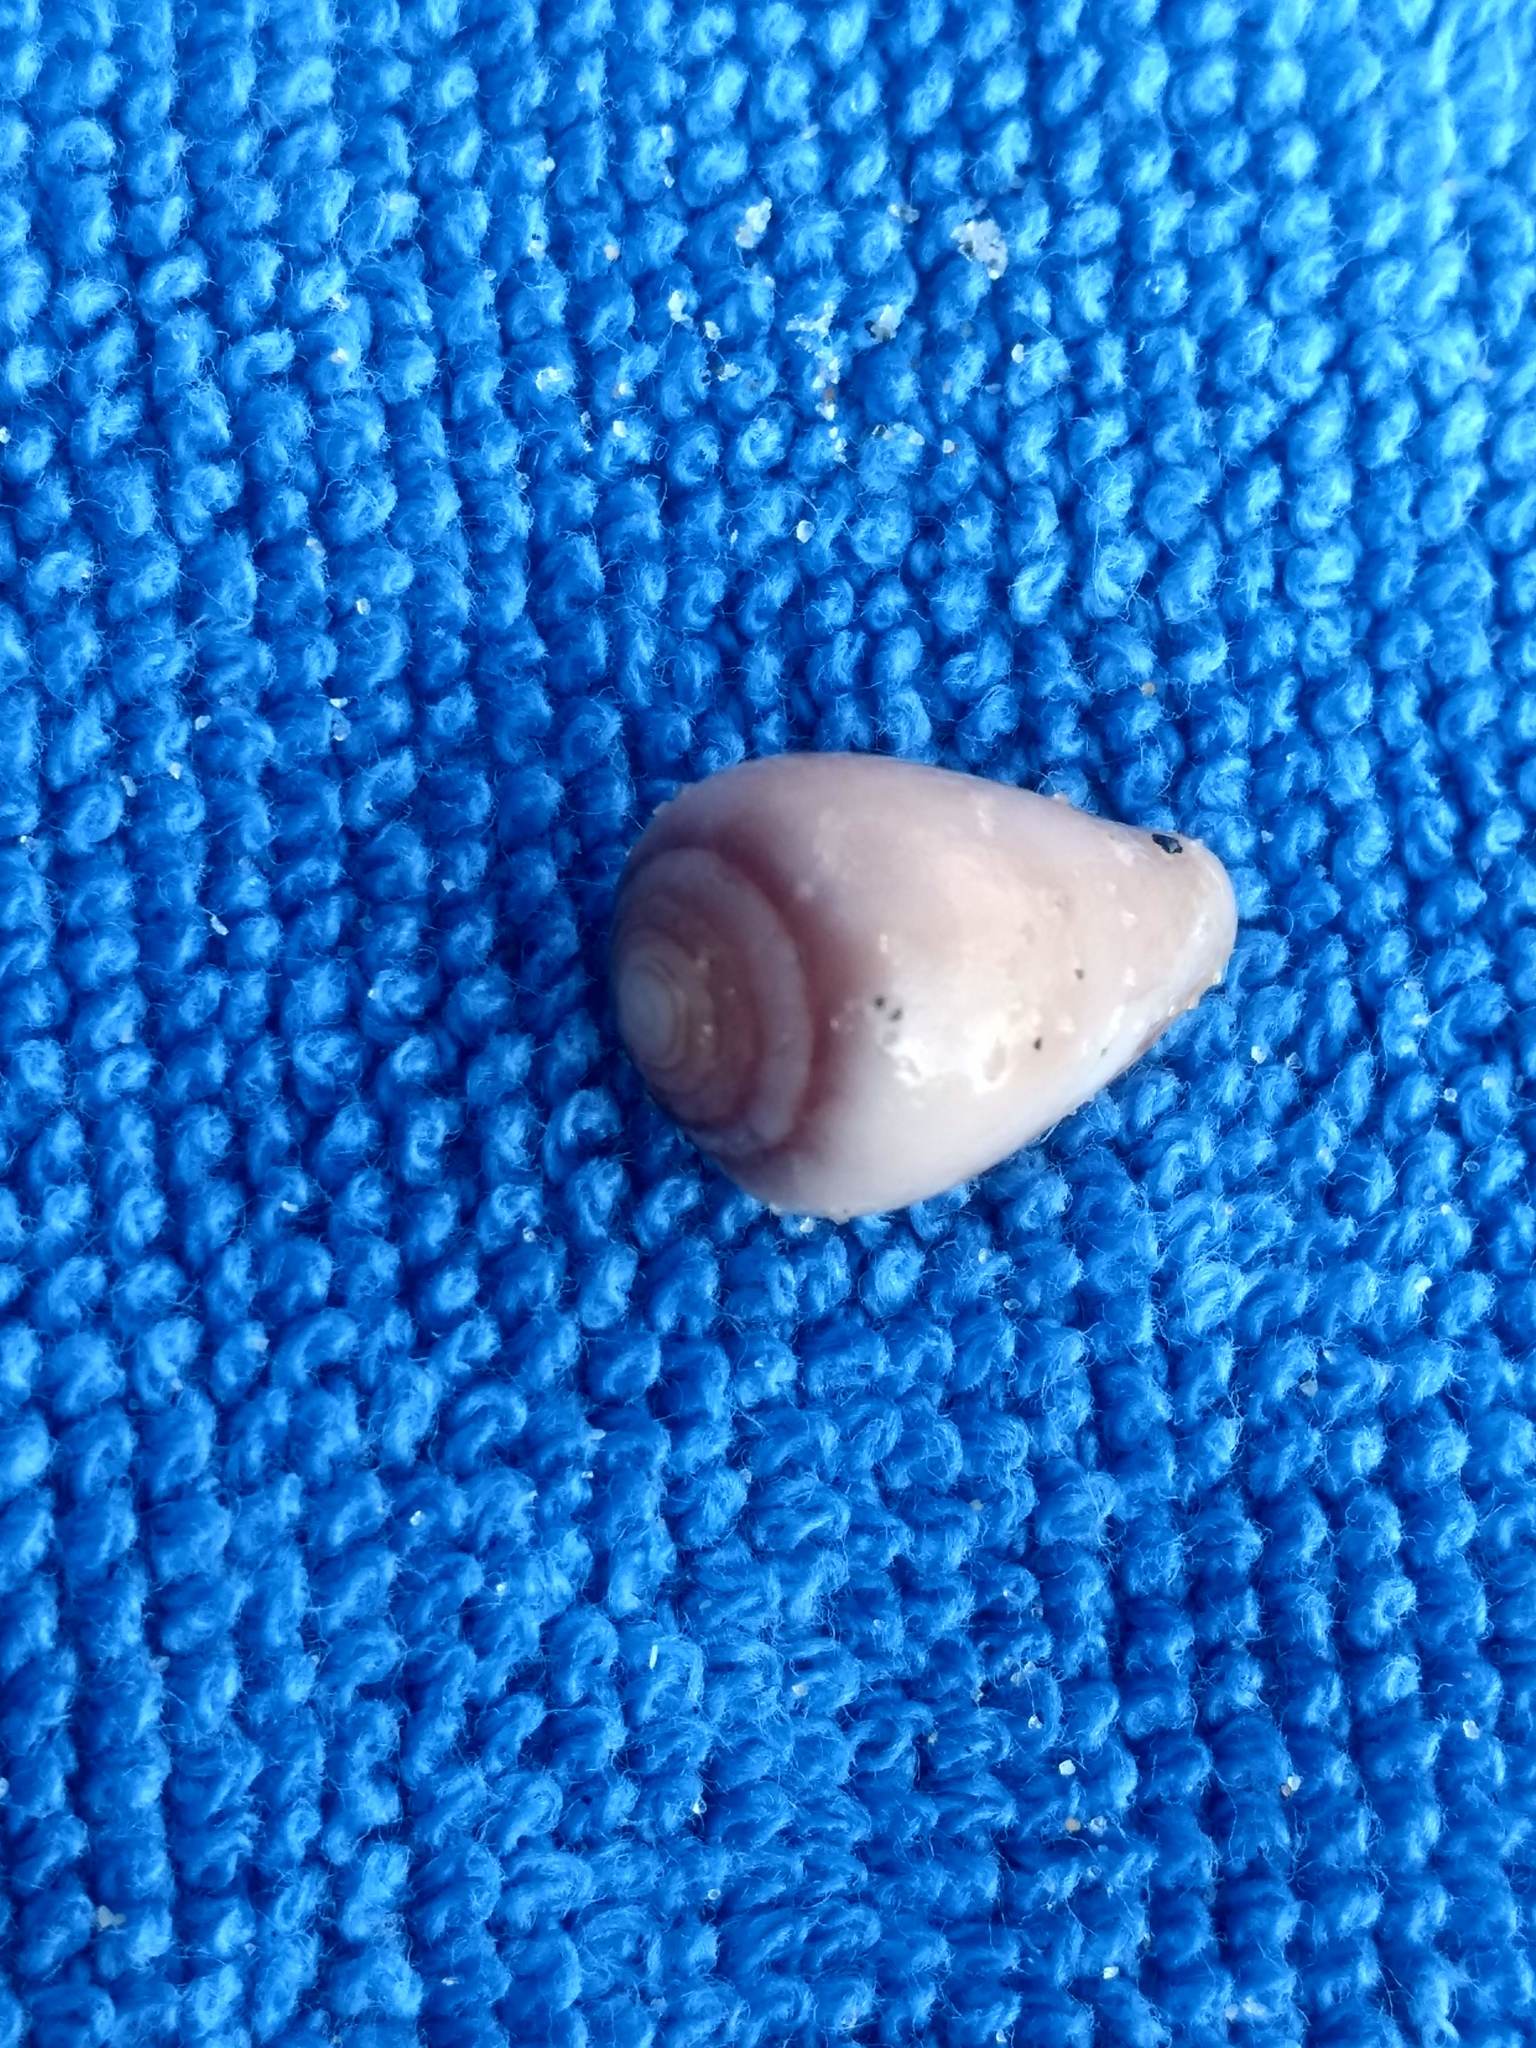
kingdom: Animalia
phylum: Mollusca
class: Gastropoda
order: Neogastropoda
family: Conidae
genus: Californiconus
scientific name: Californiconus californicus
